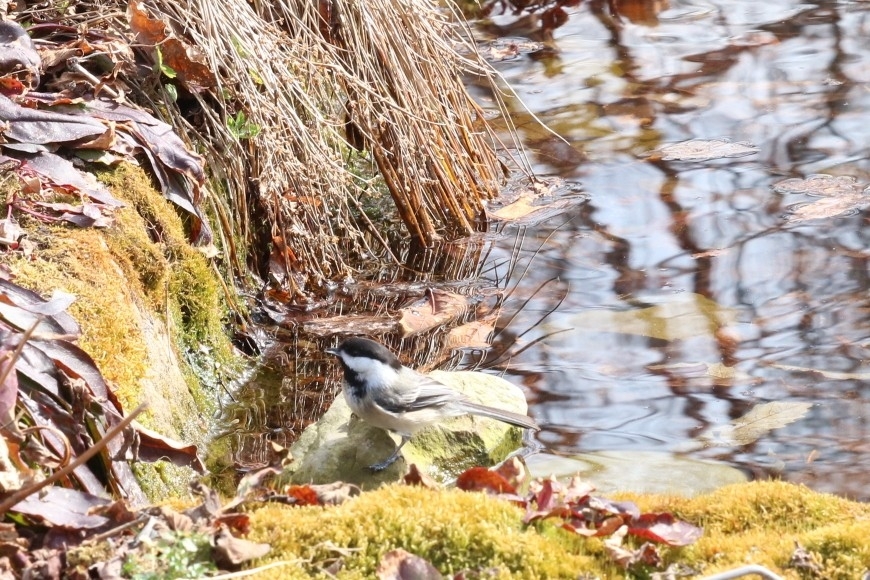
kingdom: Animalia
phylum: Chordata
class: Aves
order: Passeriformes
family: Paridae
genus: Poecile
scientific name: Poecile atricapillus
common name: Black-capped chickadee
